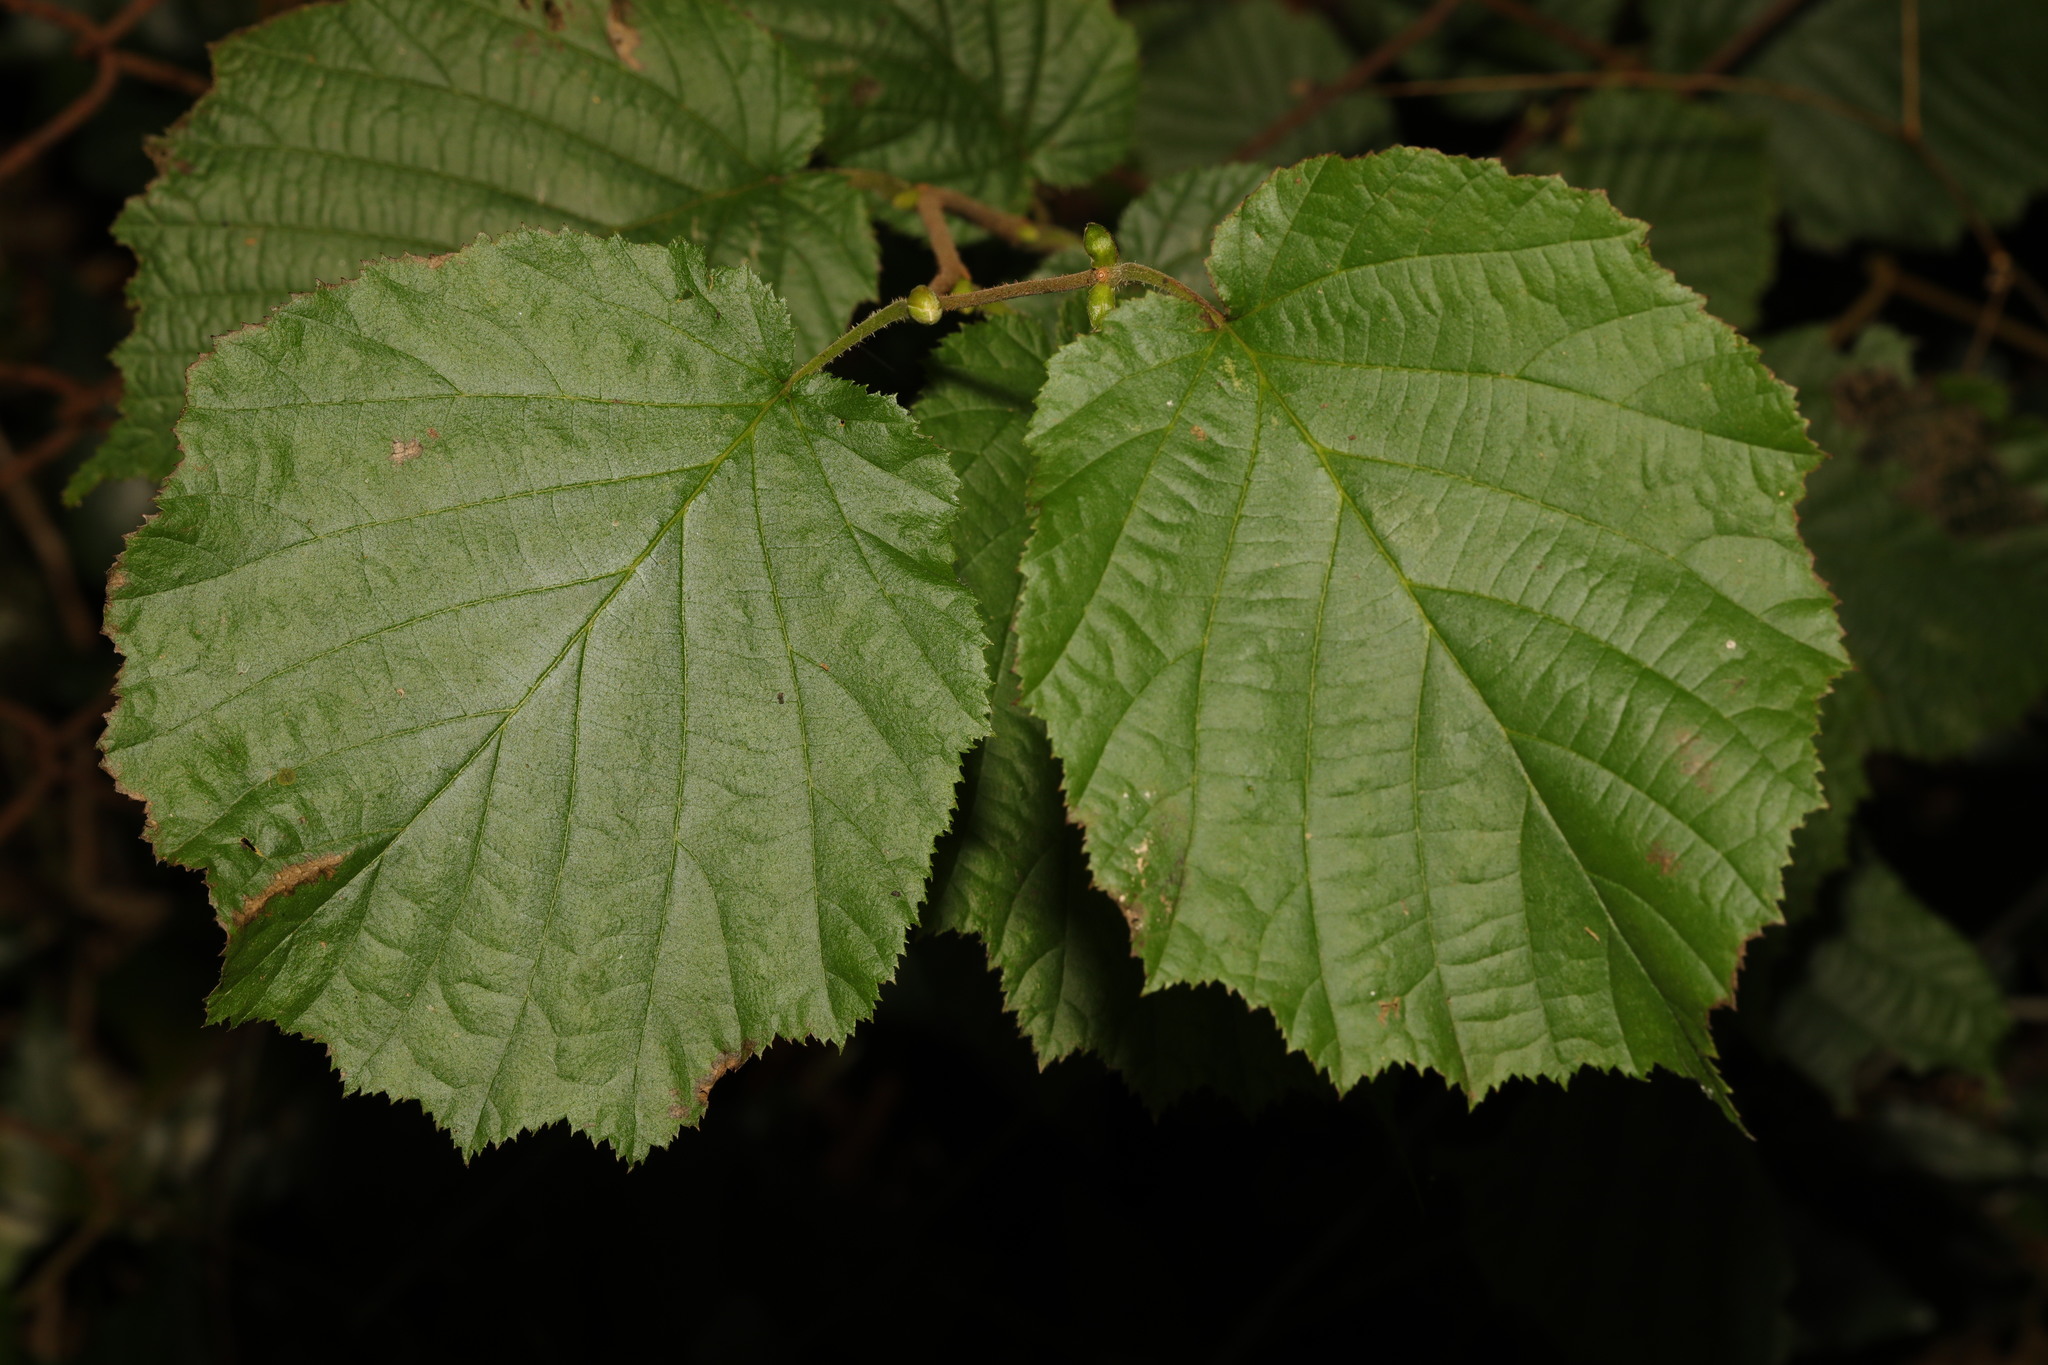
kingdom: Plantae
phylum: Tracheophyta
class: Magnoliopsida
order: Fagales
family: Betulaceae
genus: Corylus
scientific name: Corylus avellana
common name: European hazel
